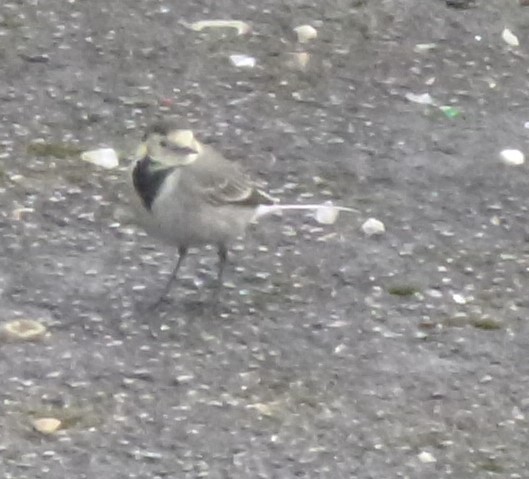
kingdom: Animalia
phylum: Chordata
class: Aves
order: Passeriformes
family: Motacillidae
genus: Motacilla
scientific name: Motacilla alba
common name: White wagtail
